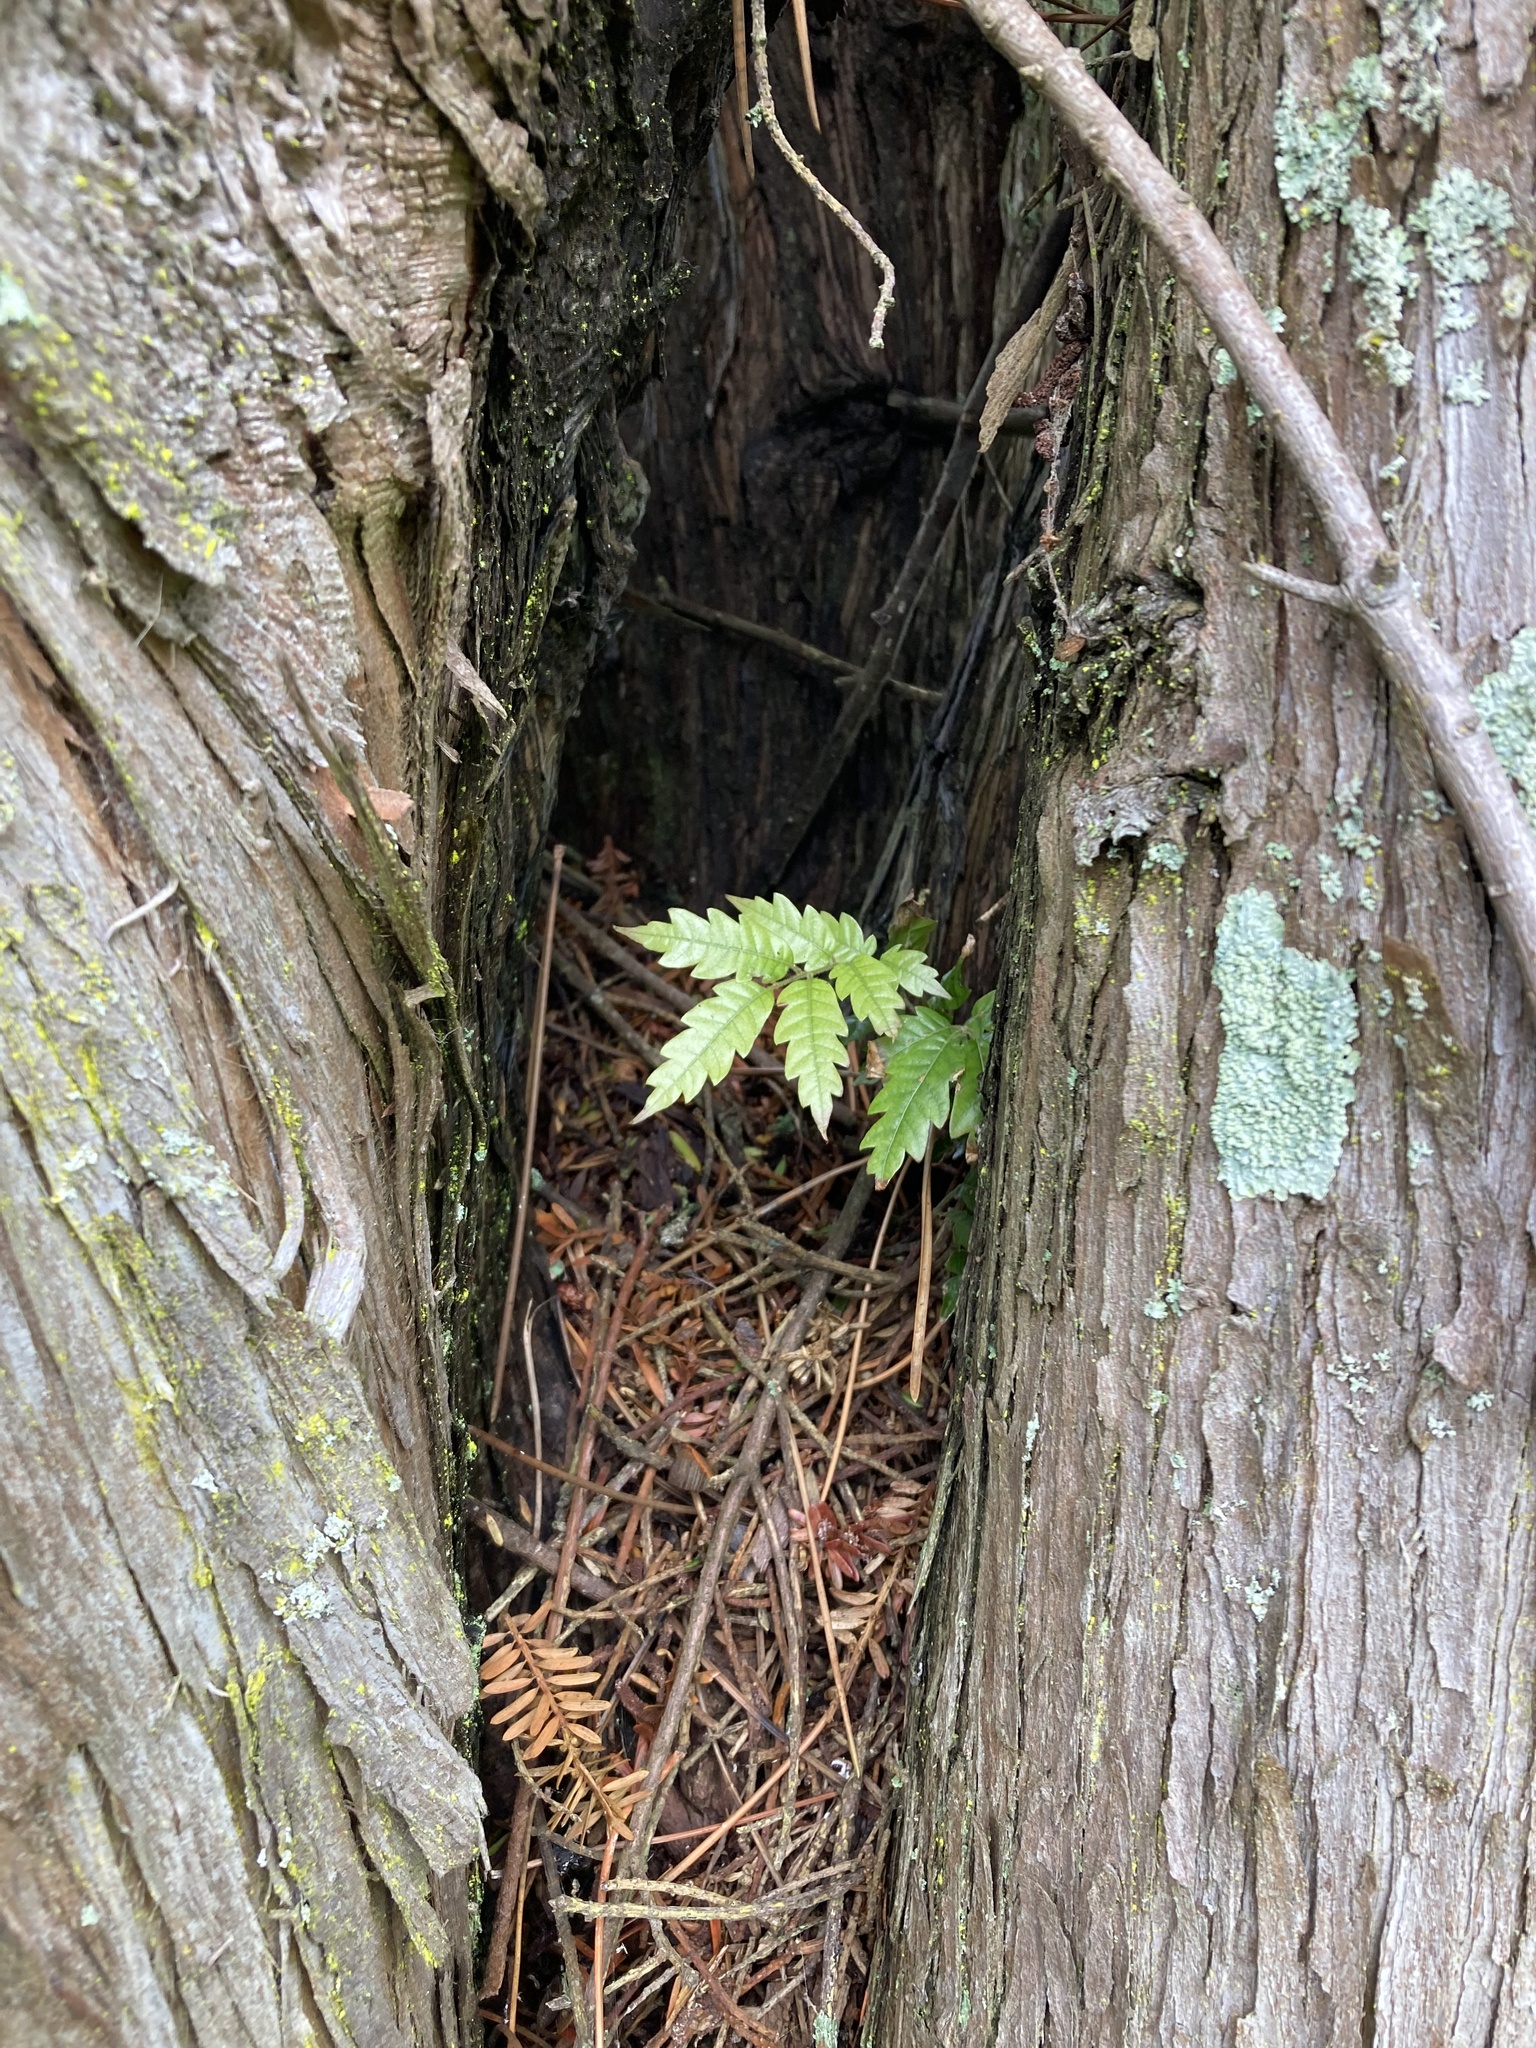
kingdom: Plantae
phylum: Tracheophyta
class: Magnoliopsida
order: Sapindales
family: Sapindaceae
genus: Alectryon
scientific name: Alectryon excelsus
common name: Three kings titoki
